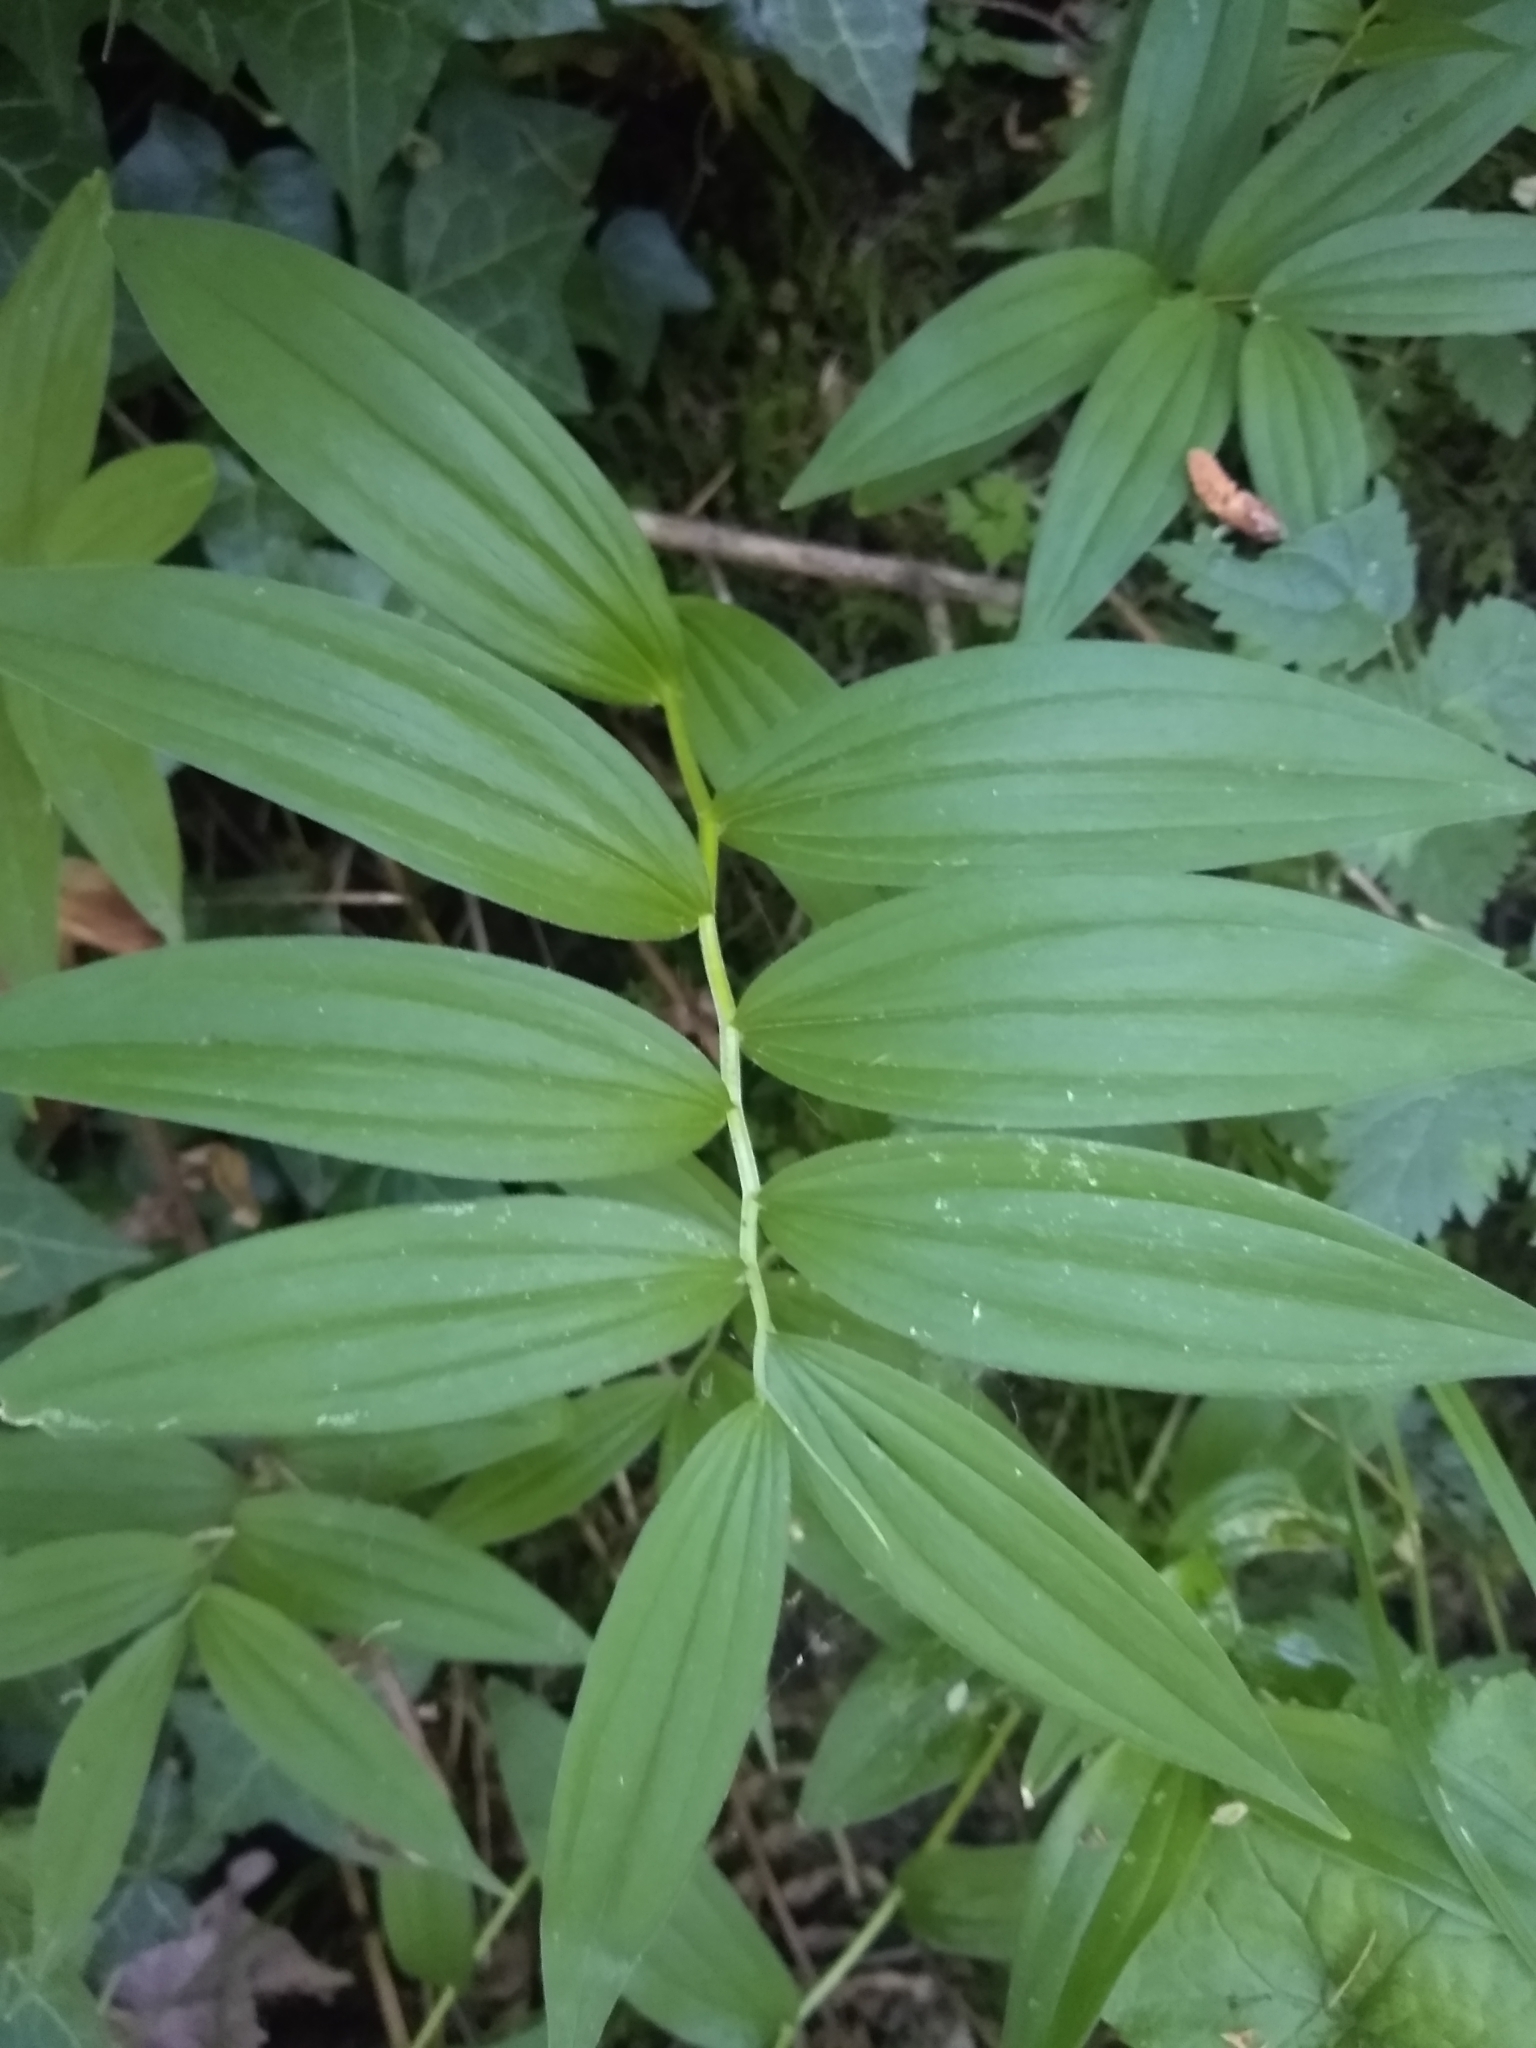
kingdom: Plantae
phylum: Tracheophyta
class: Liliopsida
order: Asparagales
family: Asparagaceae
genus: Maianthemum
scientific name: Maianthemum stellatum
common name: Little false solomon's seal
